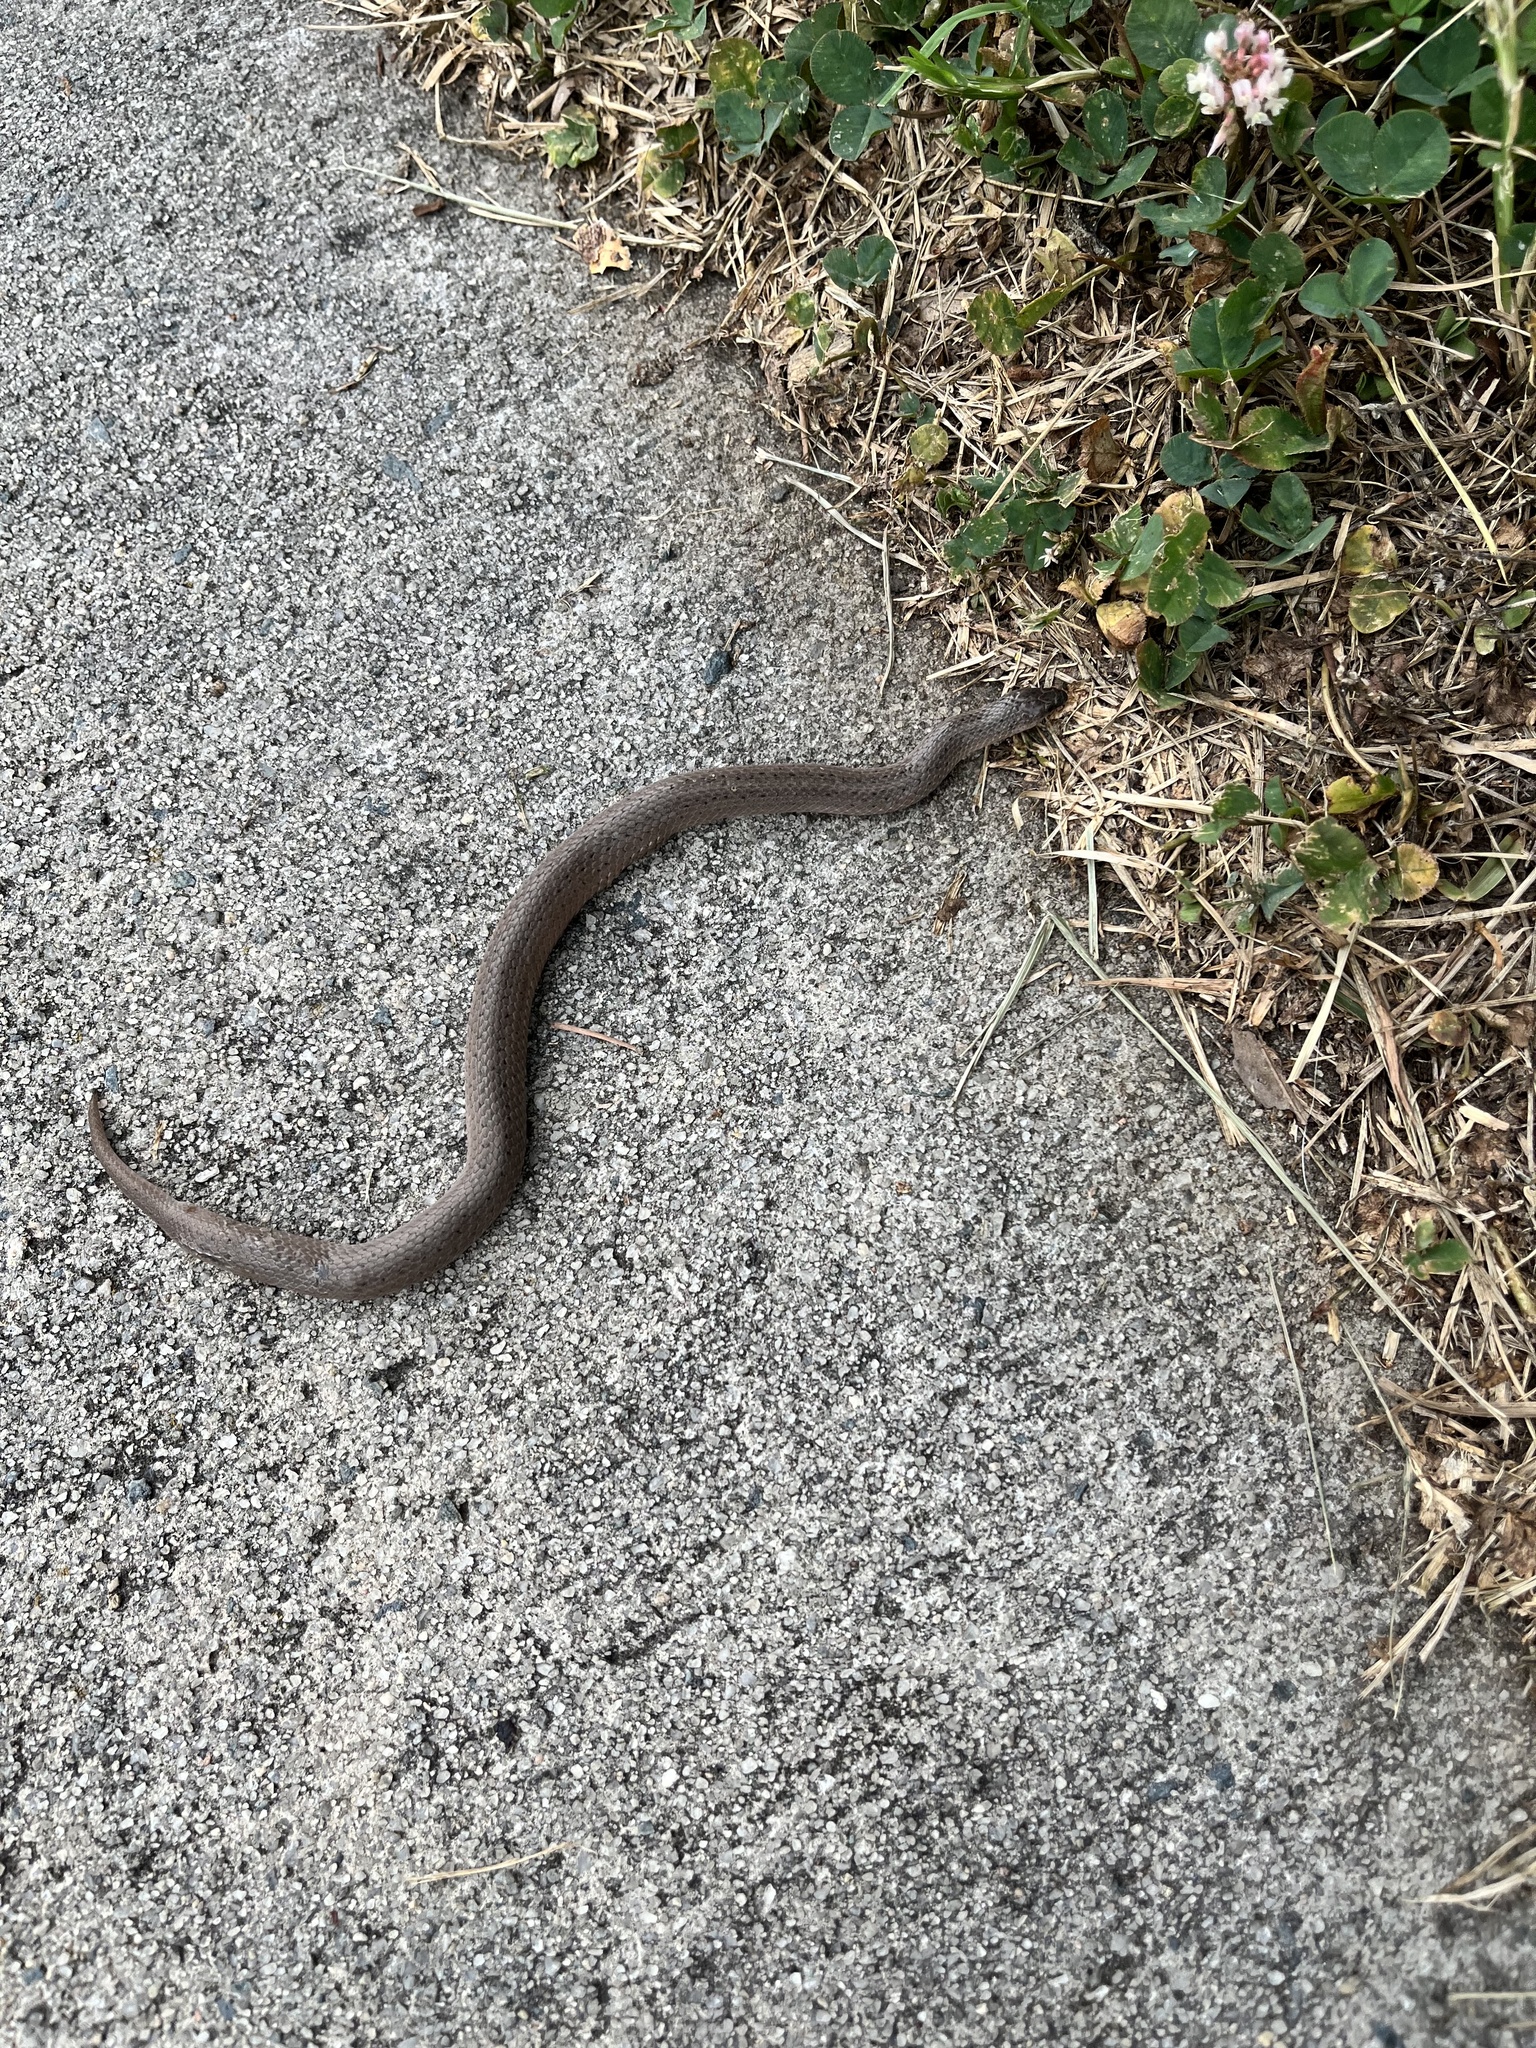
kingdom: Animalia
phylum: Chordata
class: Squamata
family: Colubridae
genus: Virginia
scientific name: Virginia valeriae
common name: Smooth earth snake
